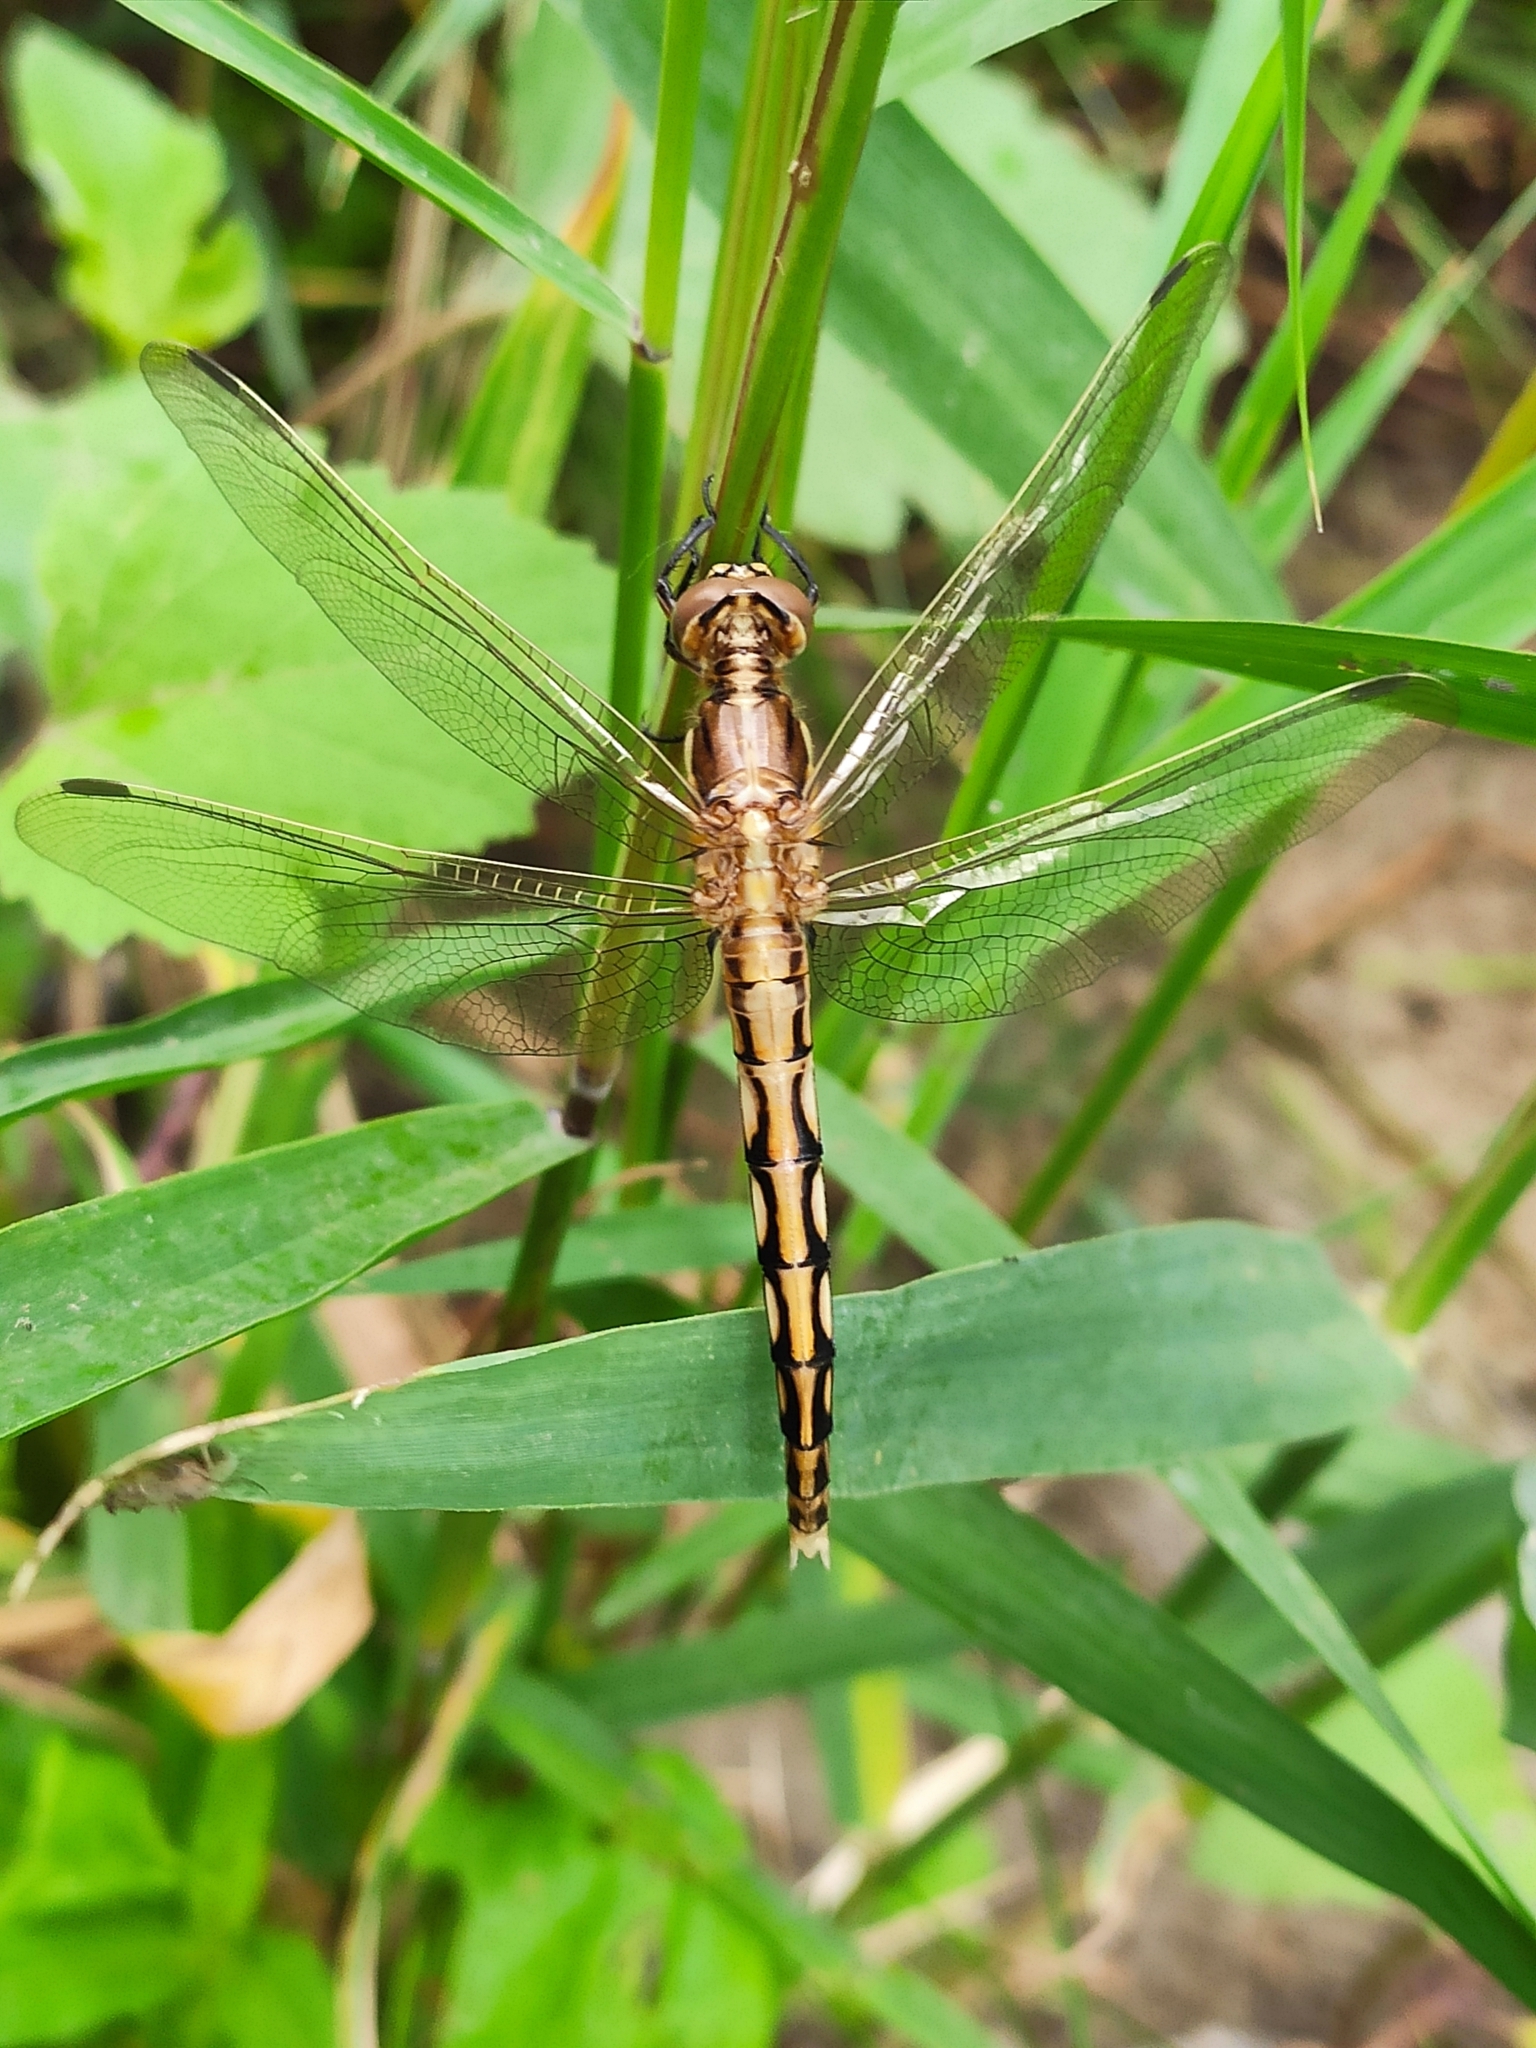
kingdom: Animalia
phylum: Arthropoda
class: Insecta
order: Odonata
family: Libellulidae
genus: Orthetrum
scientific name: Orthetrum albistylum
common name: White-tailed skimmer
